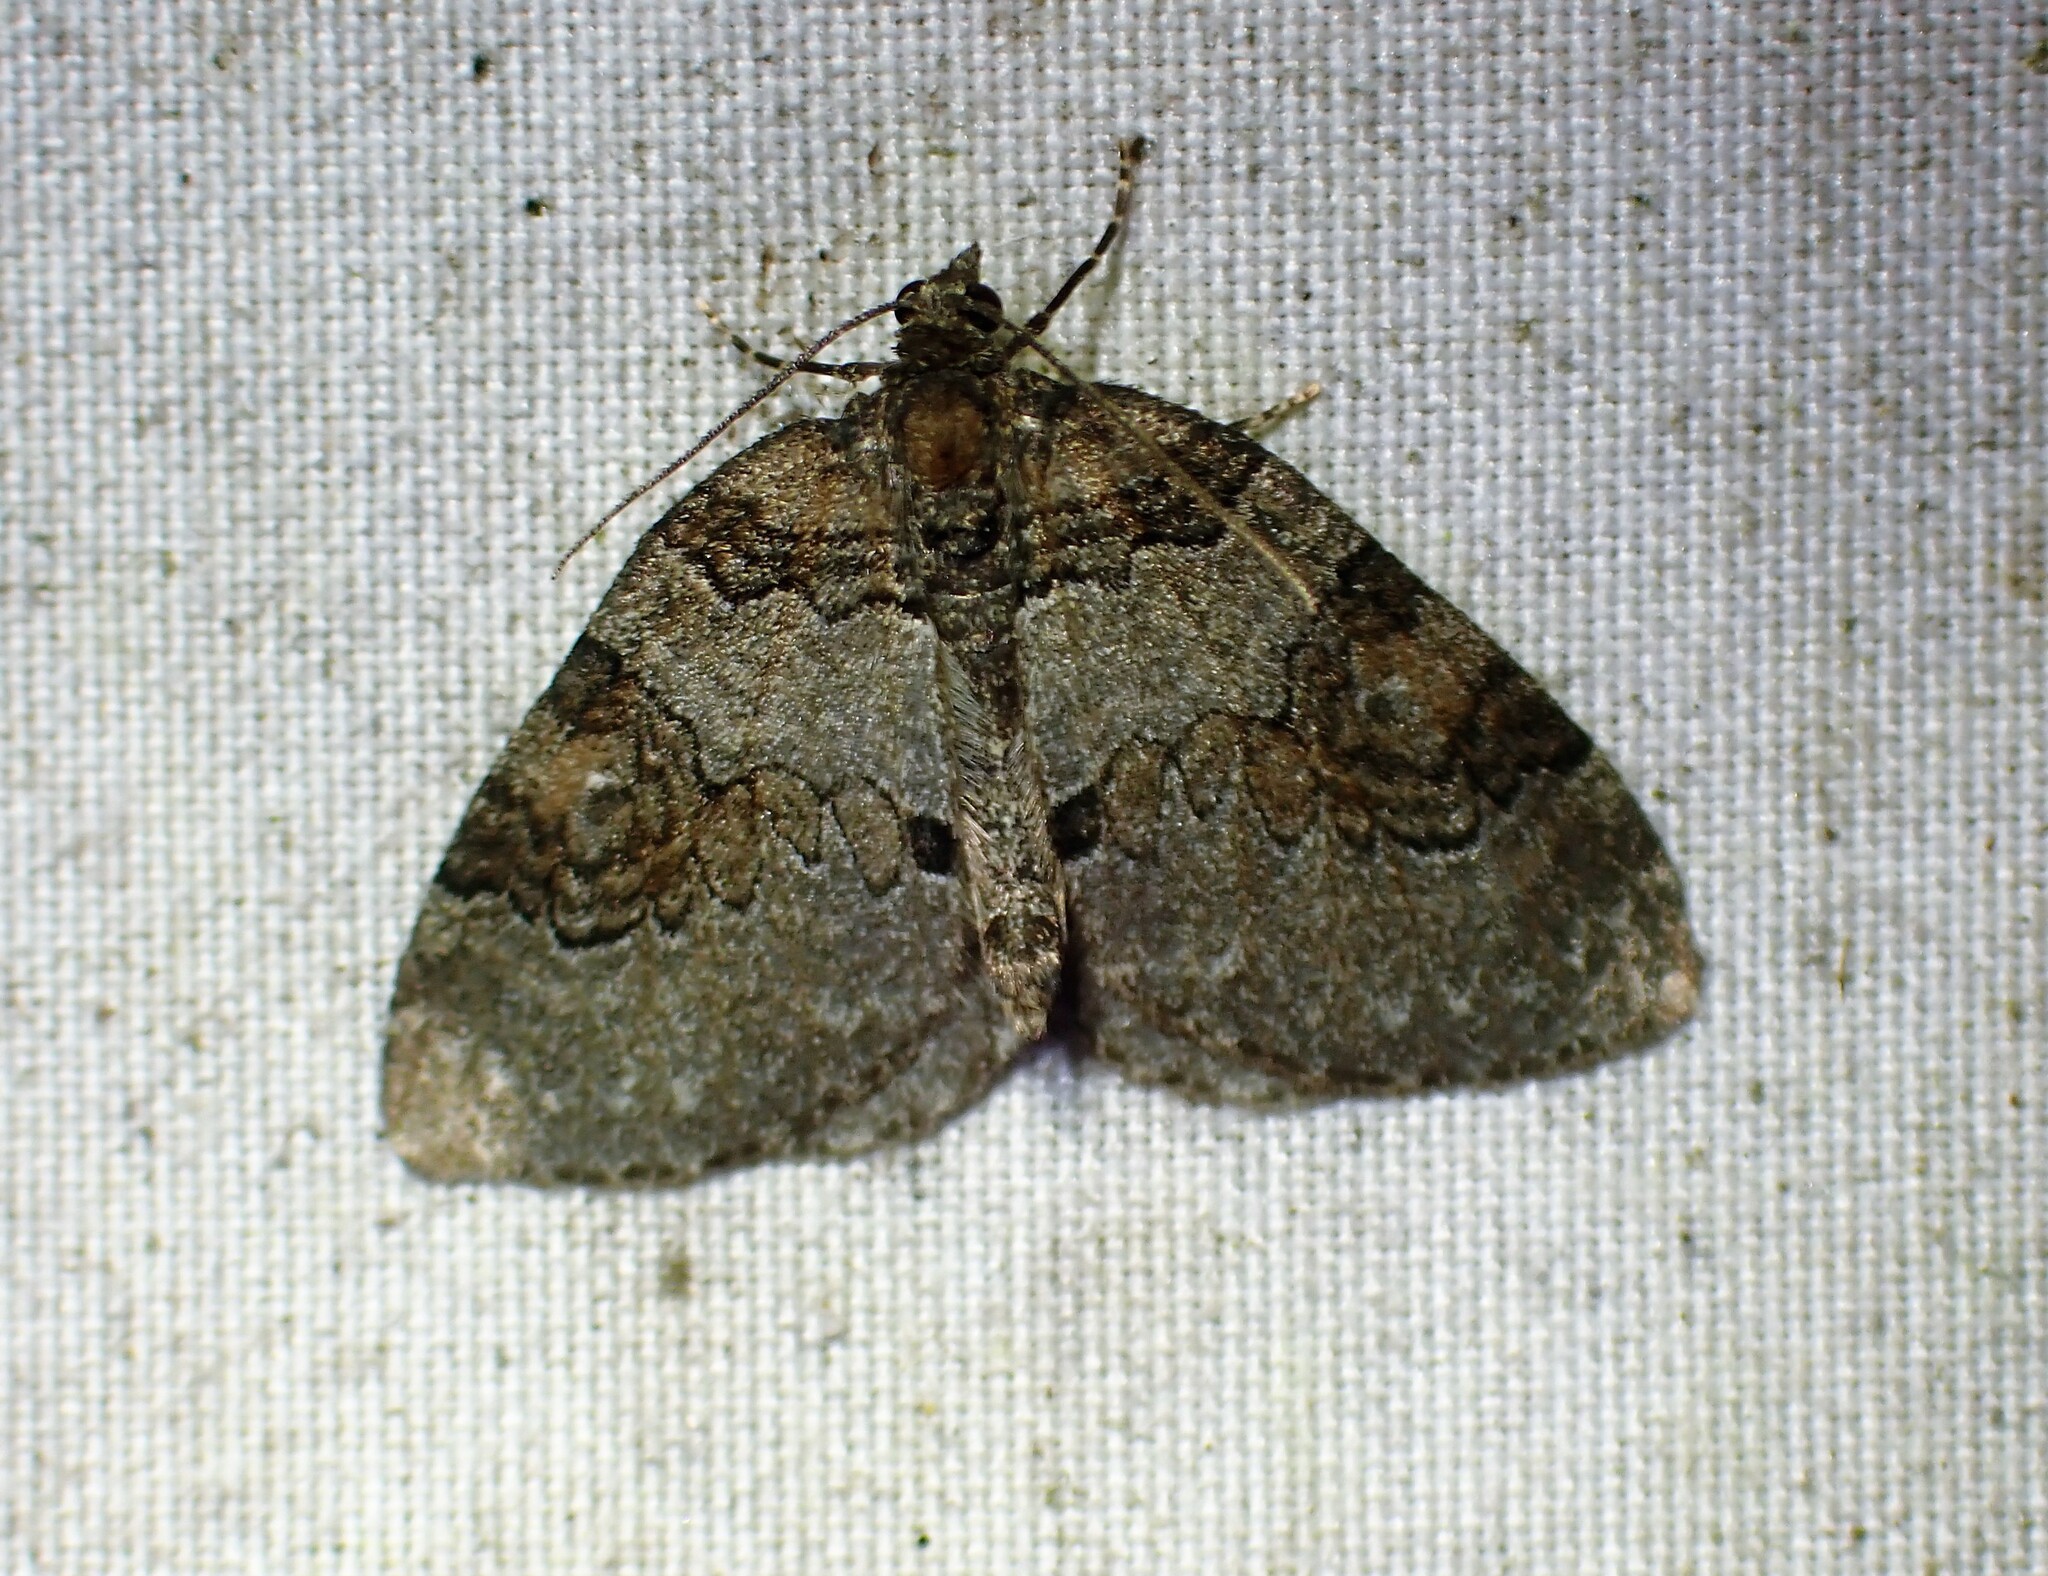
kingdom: Animalia
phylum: Arthropoda
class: Insecta
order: Lepidoptera
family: Geometridae
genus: Plemyria
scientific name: Plemyria georgii
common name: George's carpet moth
